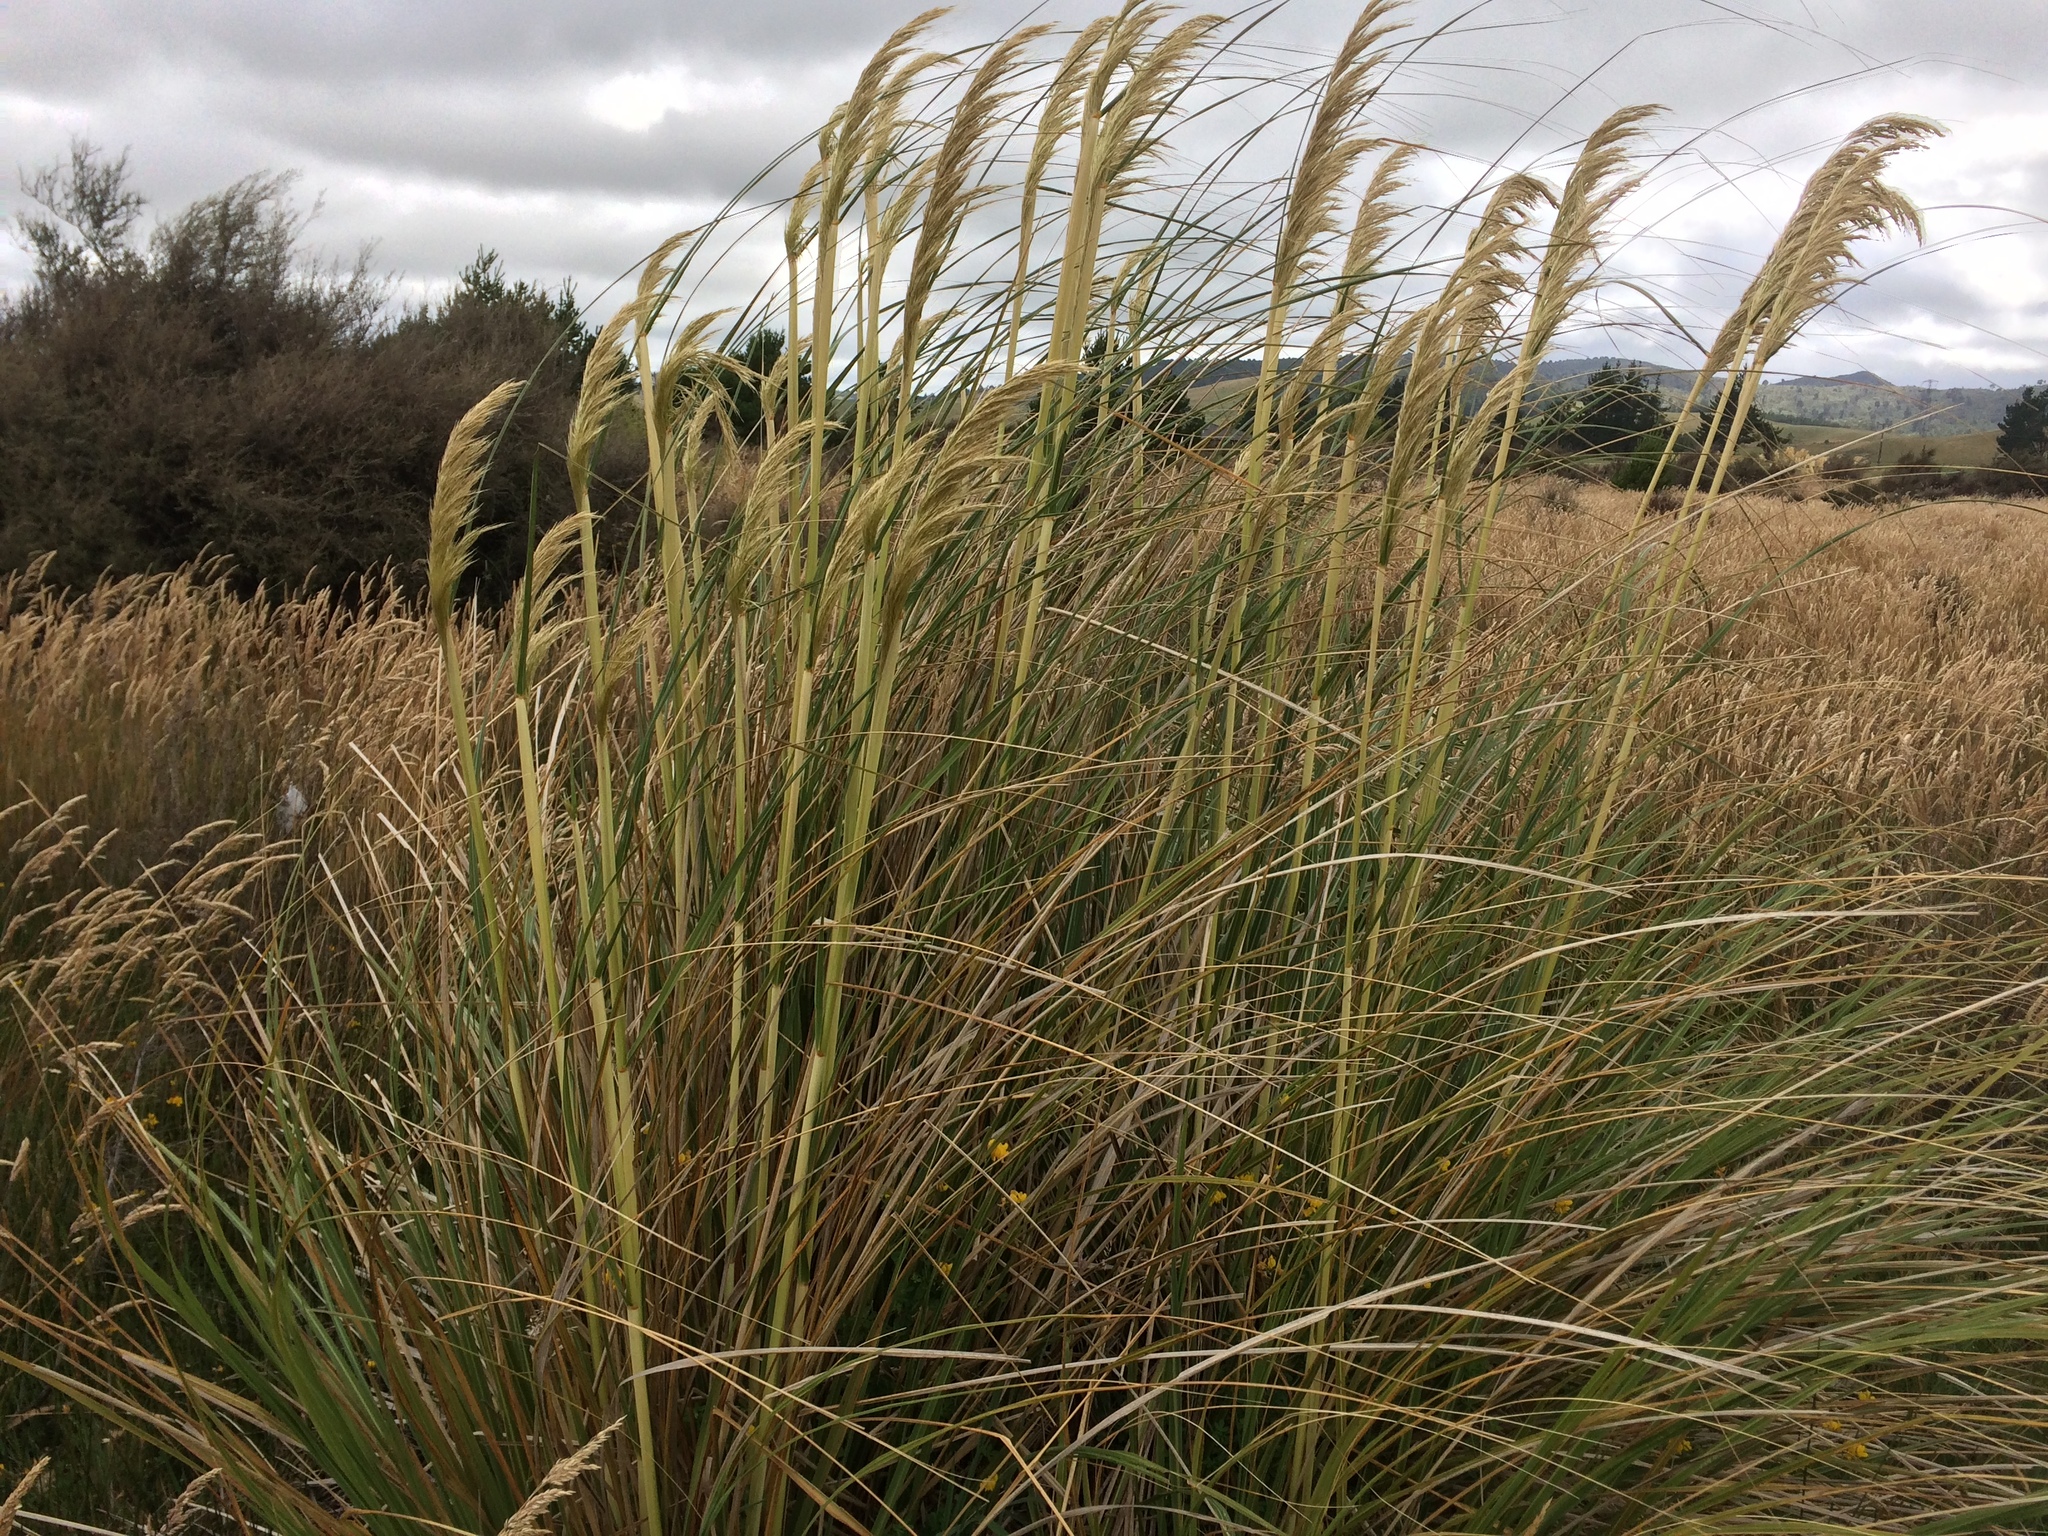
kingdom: Plantae
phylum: Tracheophyta
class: Liliopsida
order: Poales
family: Poaceae
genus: Austroderia
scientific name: Austroderia toetoe
